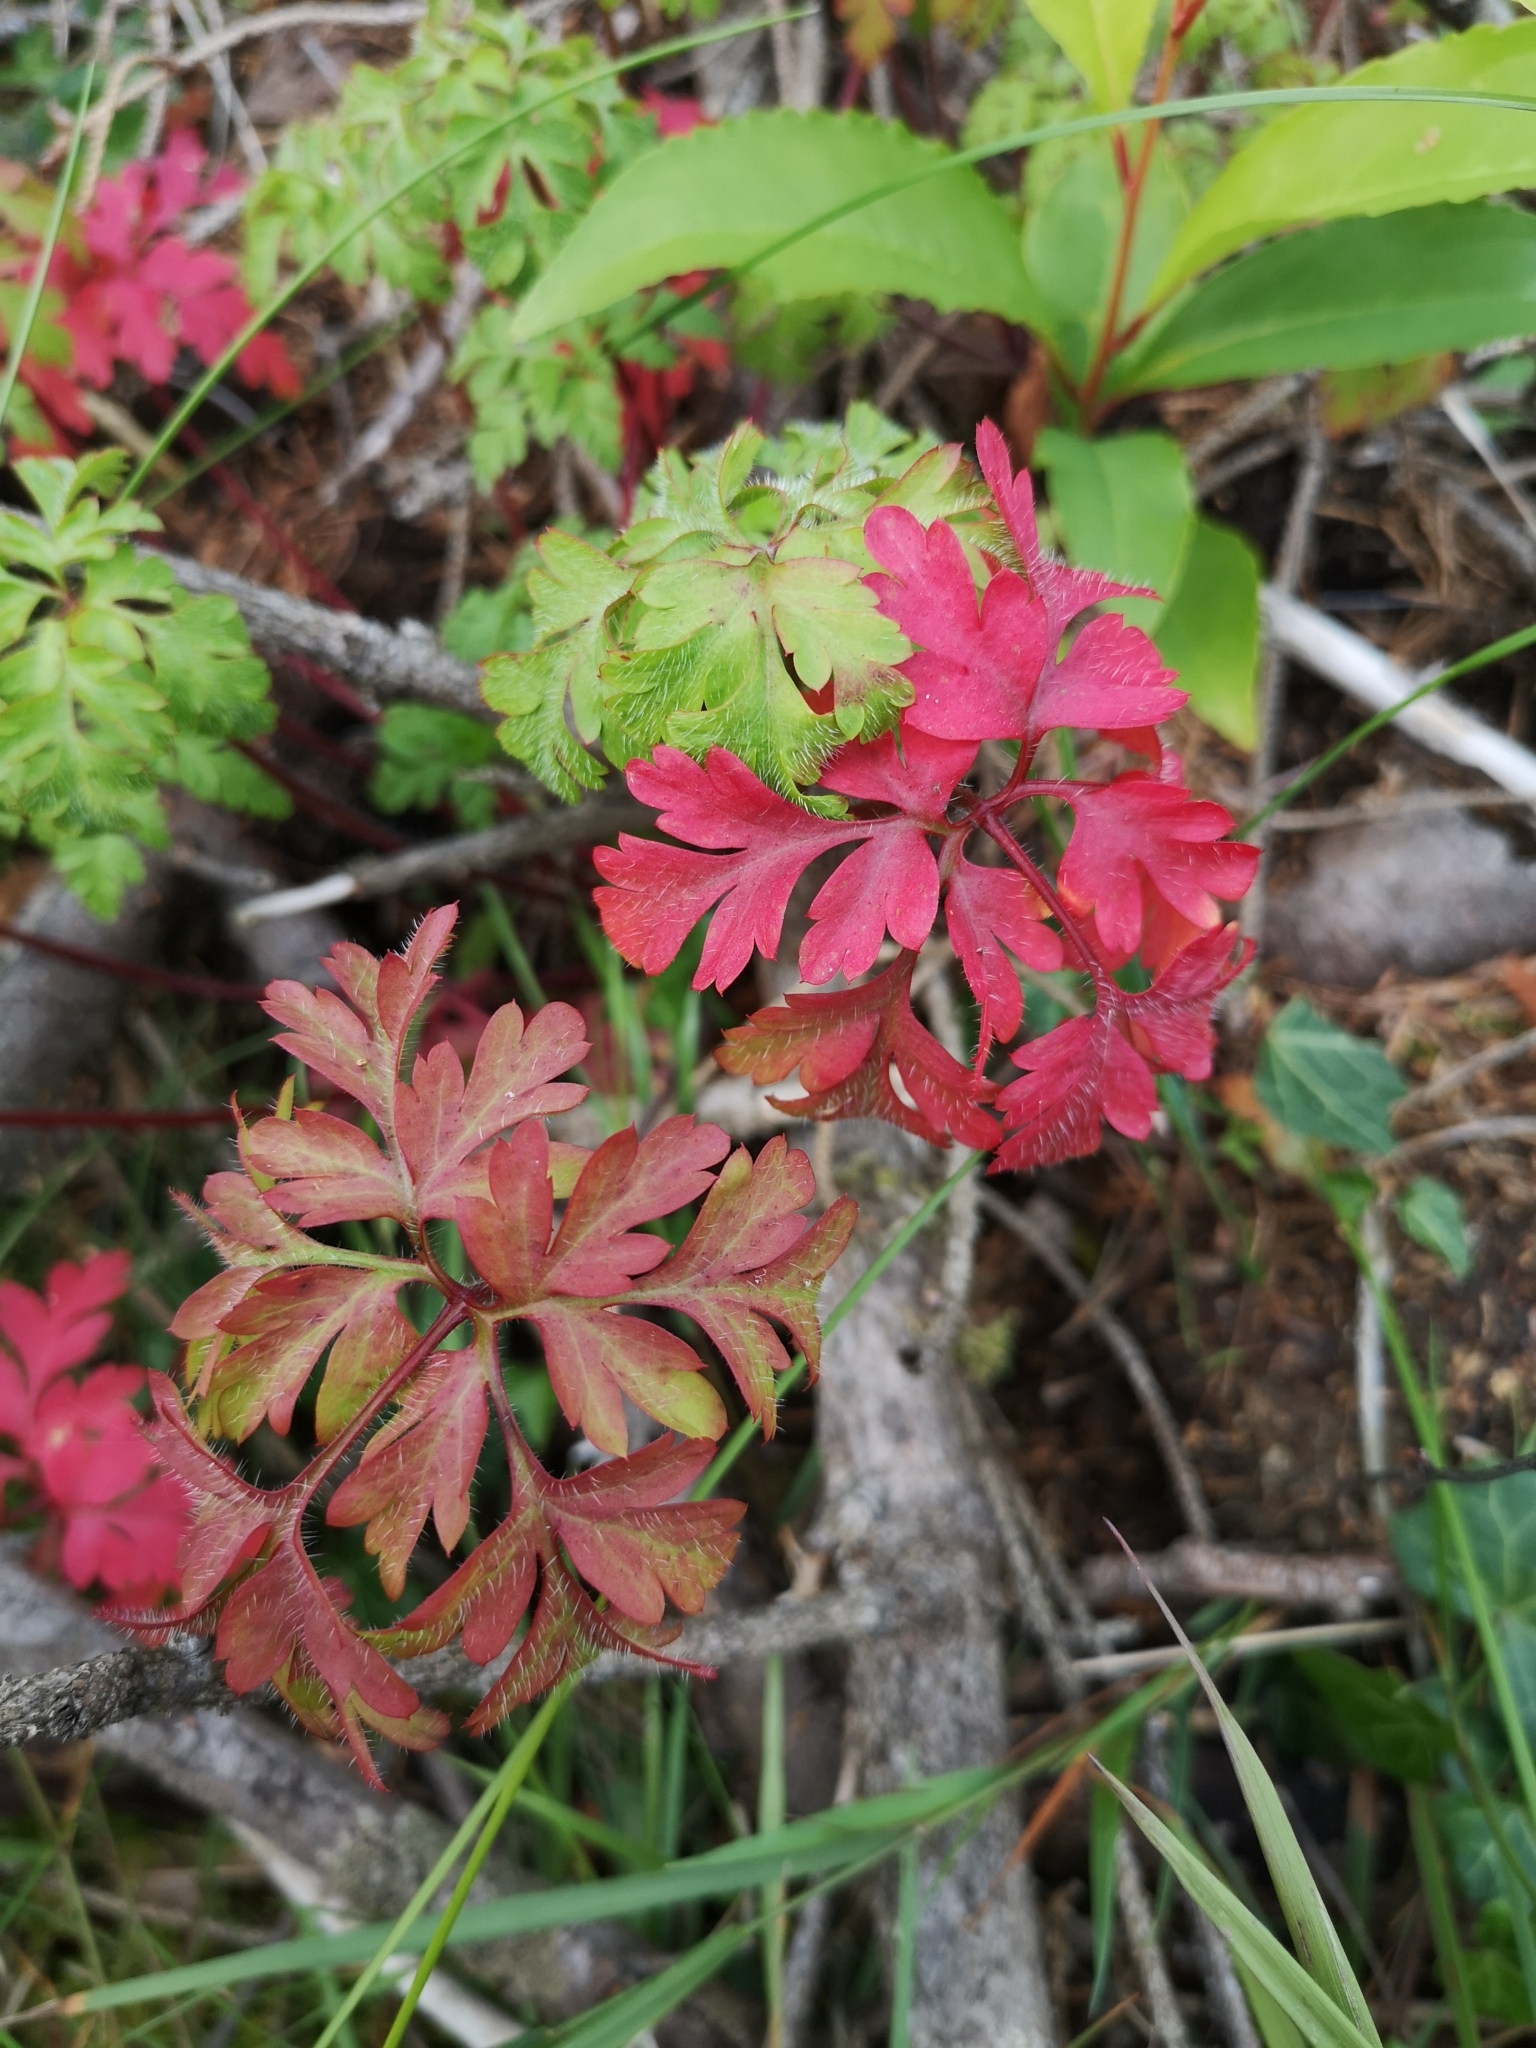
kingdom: Plantae
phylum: Tracheophyta
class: Magnoliopsida
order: Geraniales
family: Geraniaceae
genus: Geranium
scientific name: Geranium robertianum
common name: Herb-robert
